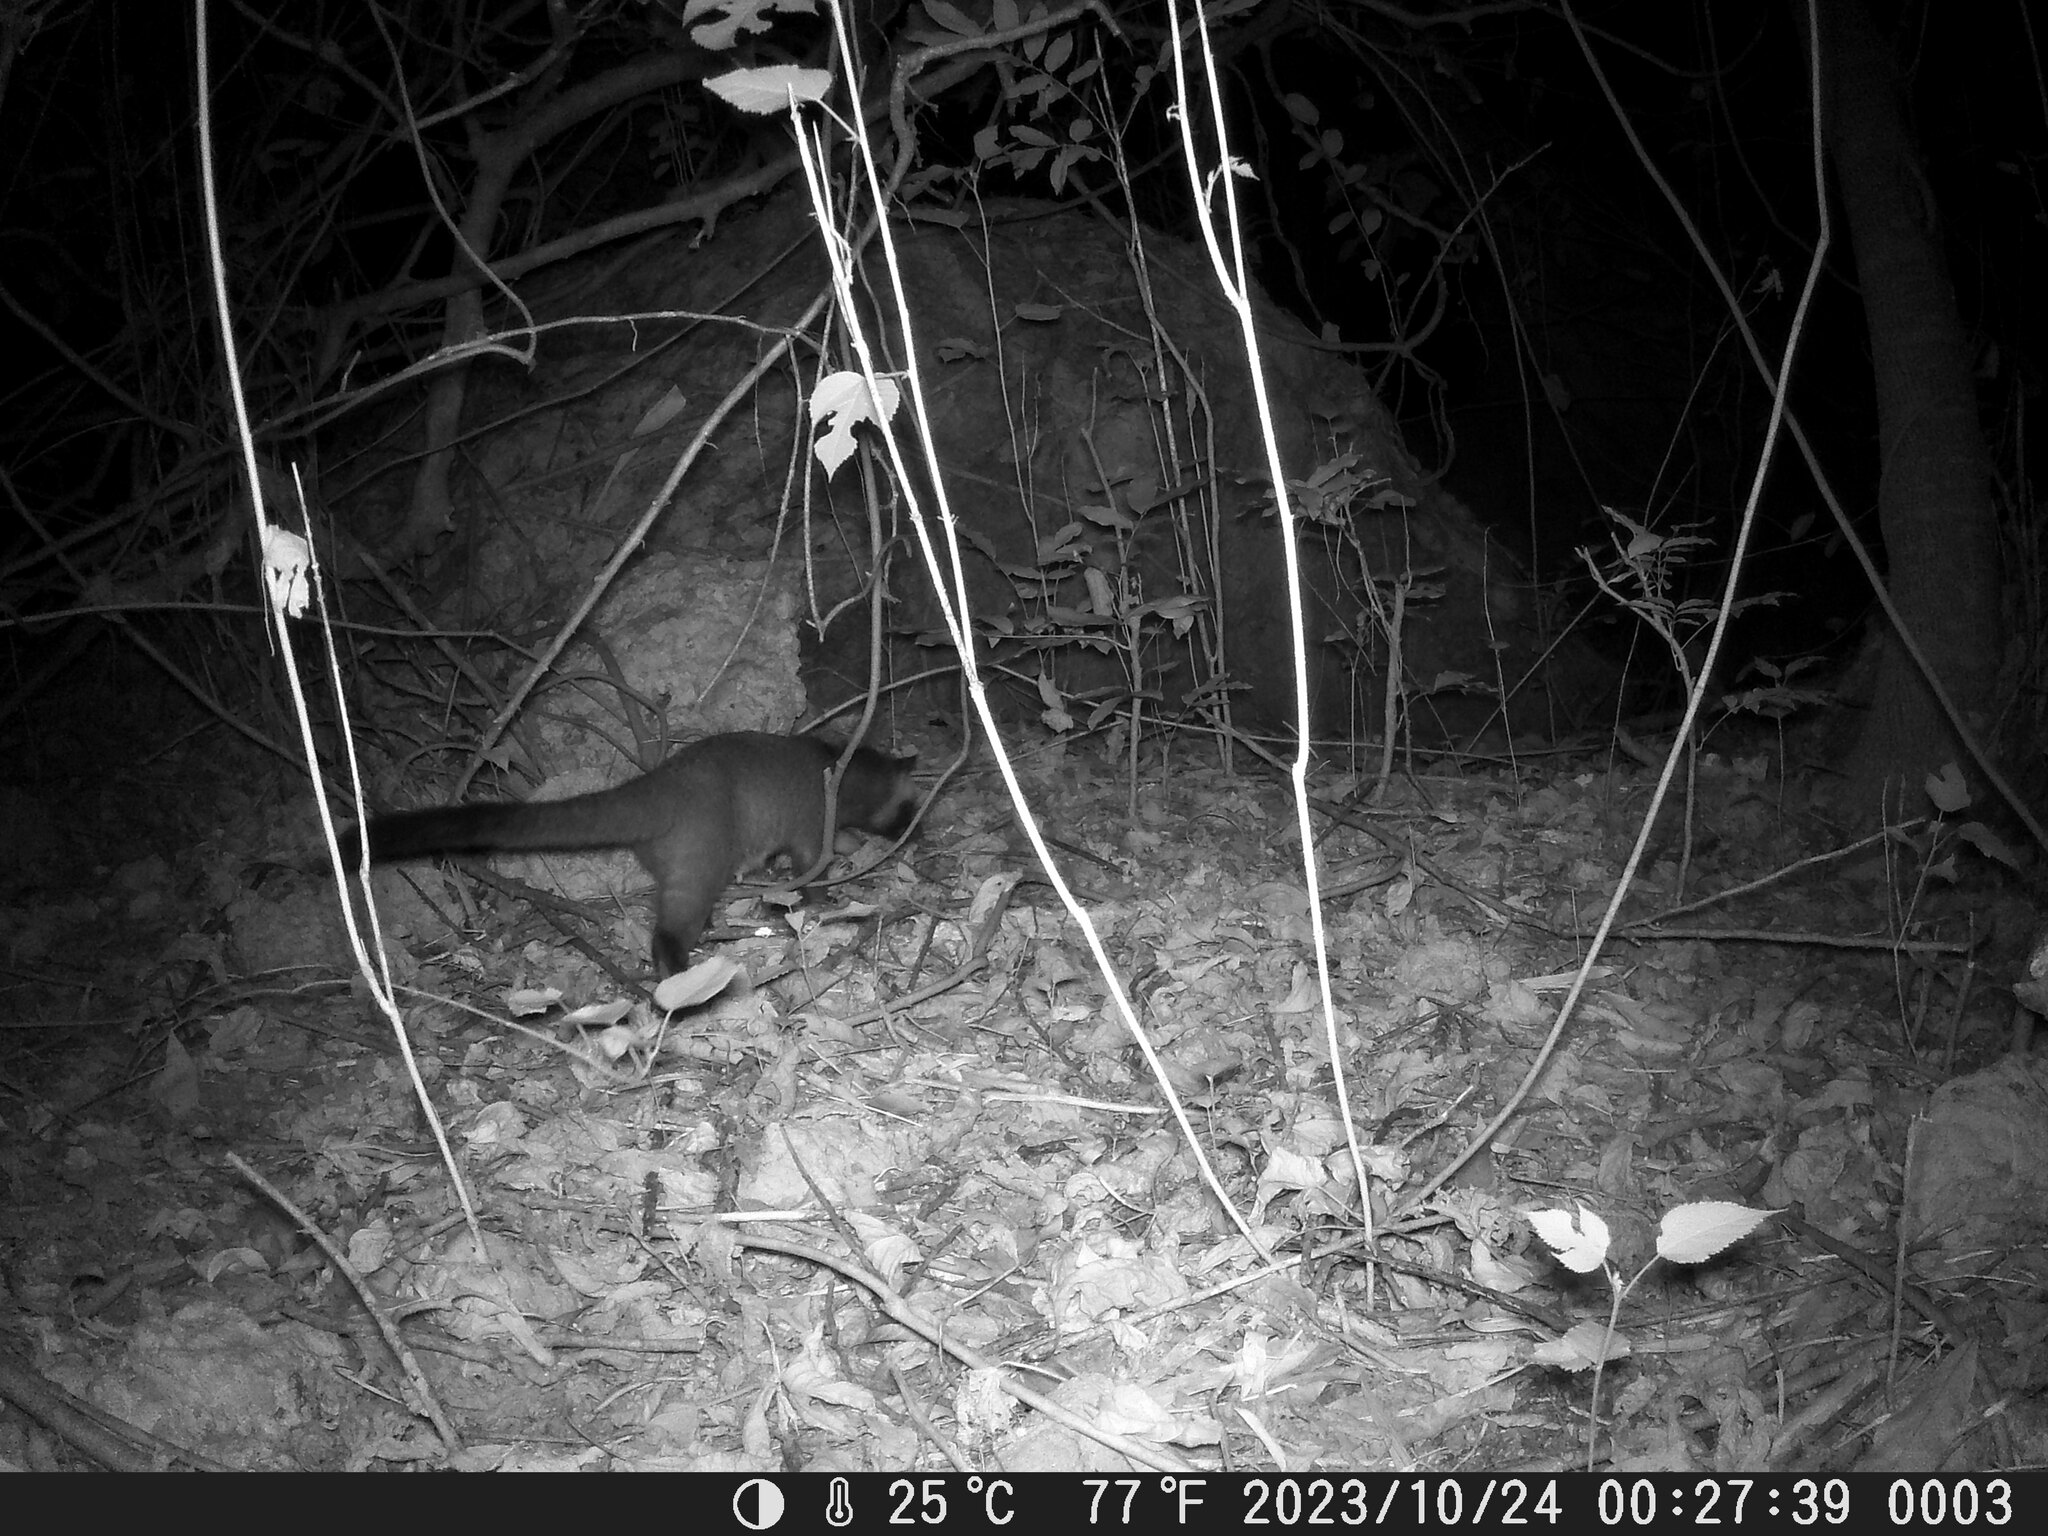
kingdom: Animalia
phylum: Chordata
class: Mammalia
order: Carnivora
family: Viverridae
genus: Paguma
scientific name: Paguma larvata
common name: Masked palm civet
